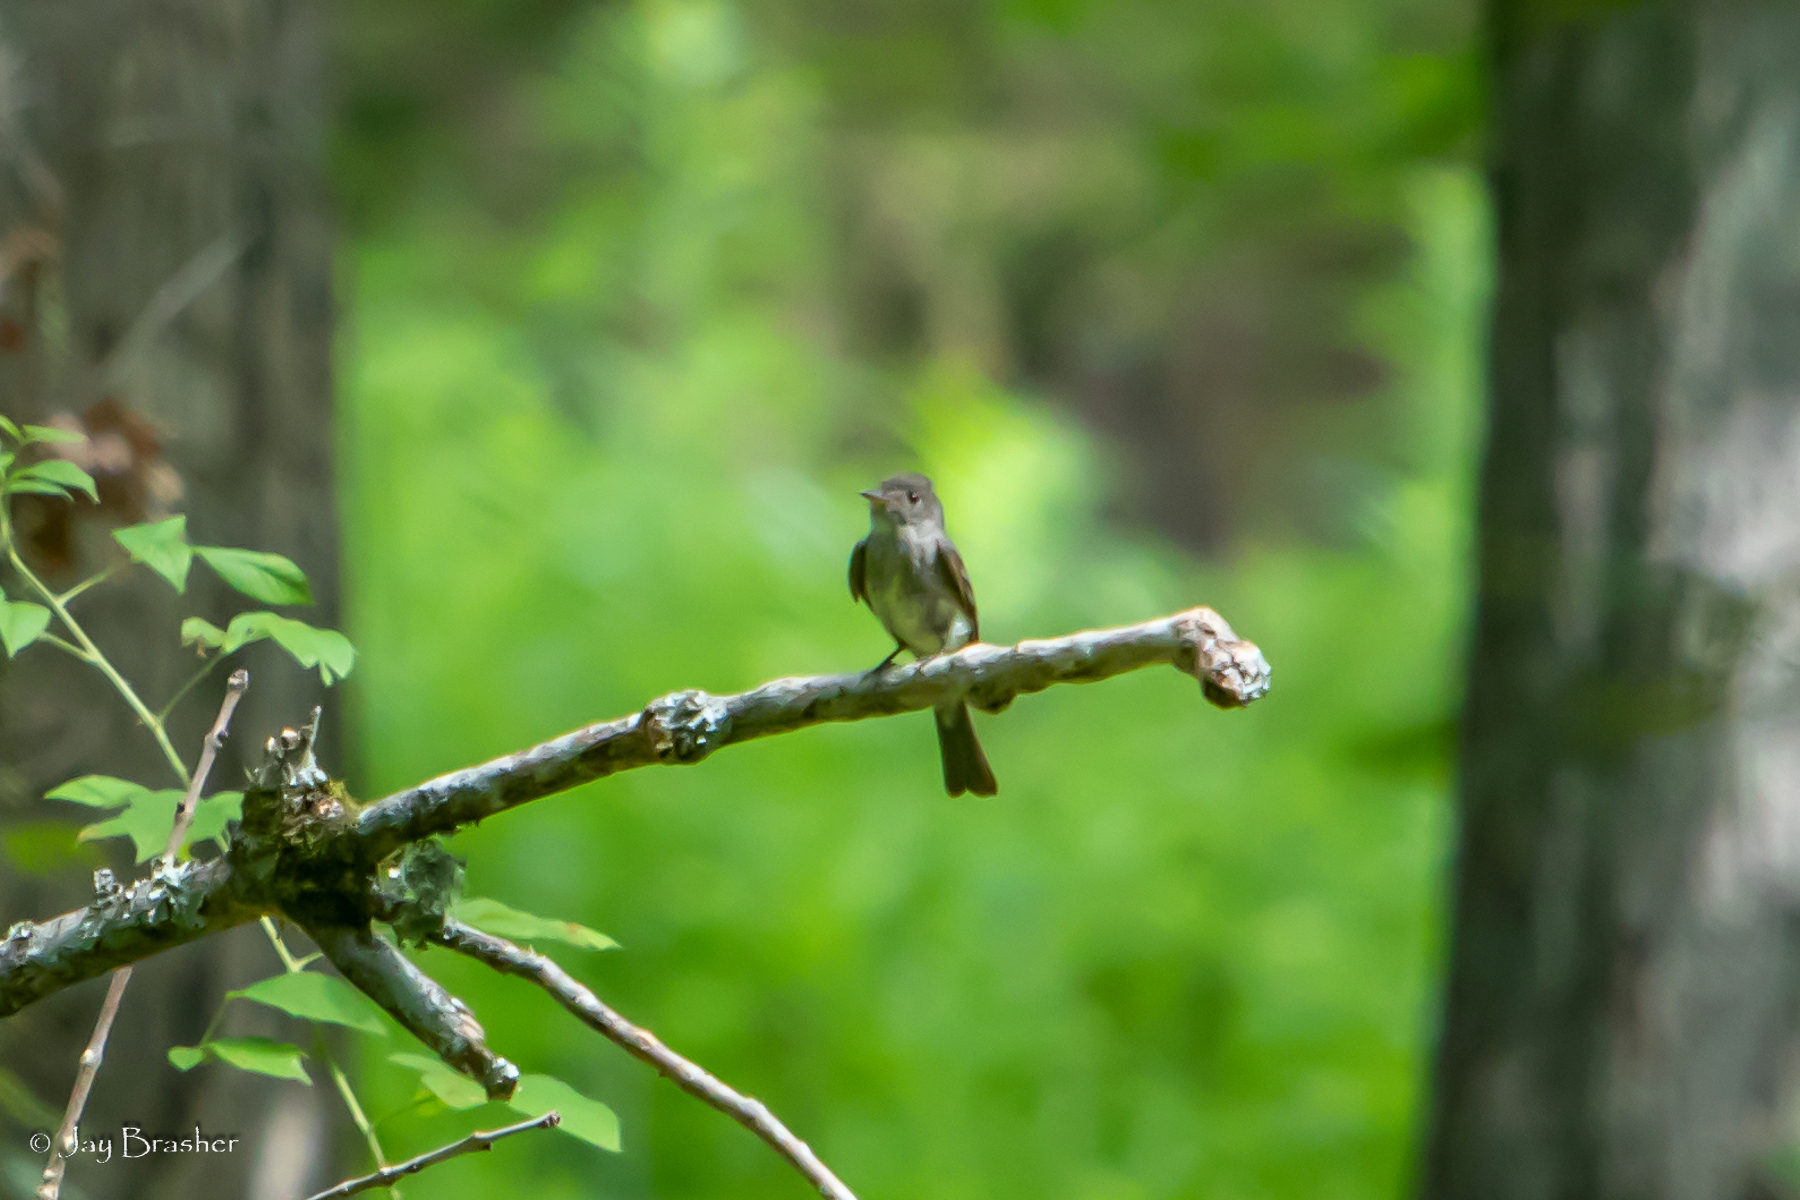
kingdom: Animalia
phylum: Chordata
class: Aves
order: Passeriformes
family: Tyrannidae
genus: Contopus
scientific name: Contopus virens
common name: Eastern wood-pewee
